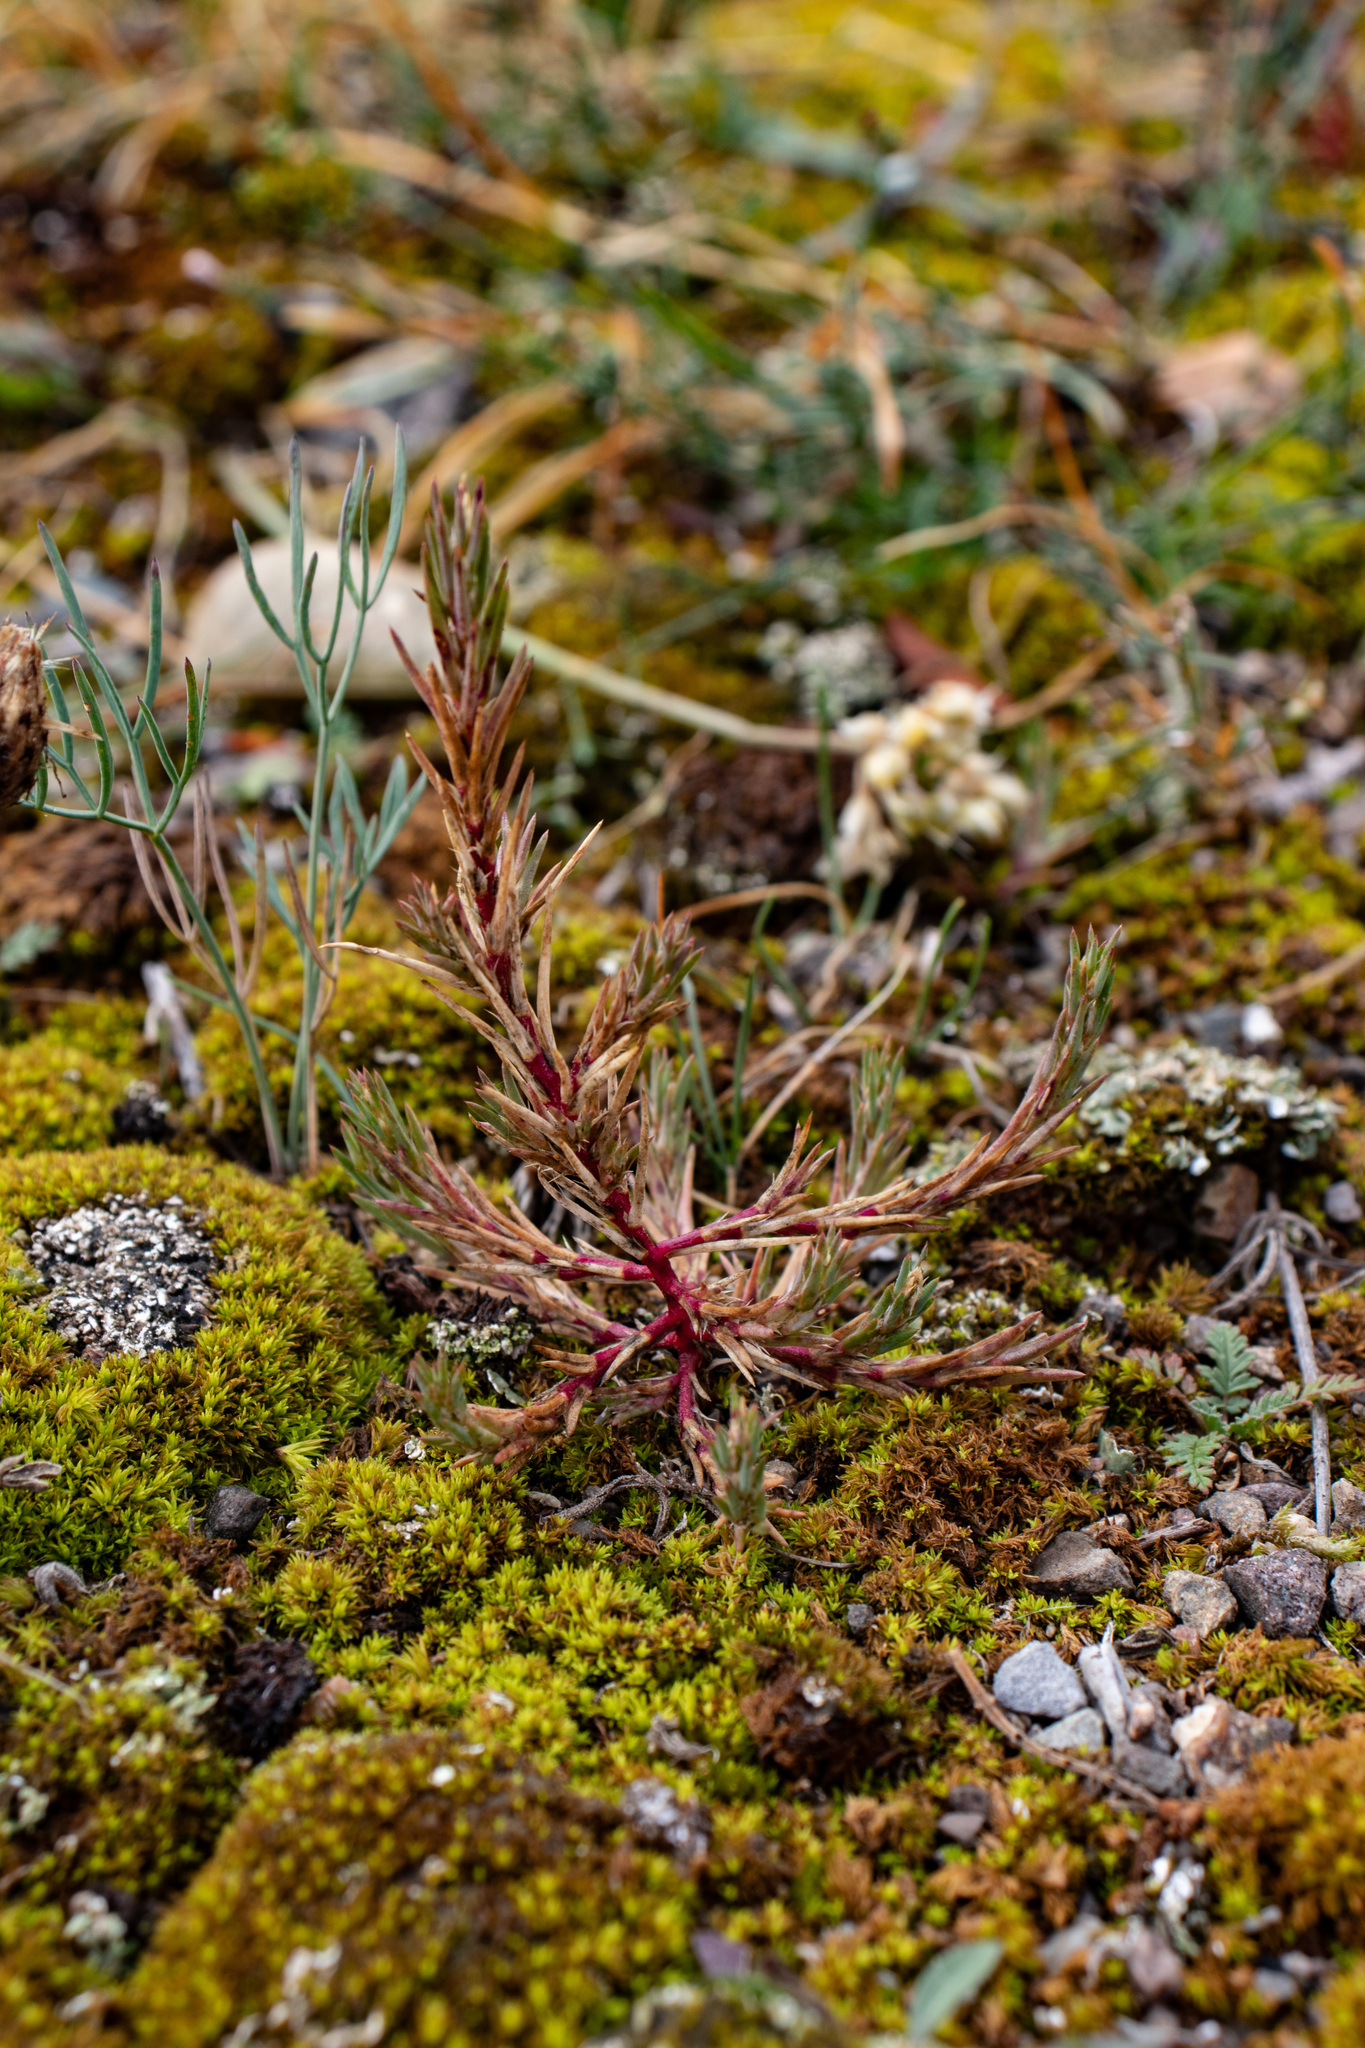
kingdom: Plantae
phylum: Tracheophyta
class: Magnoliopsida
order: Caryophyllales
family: Amaranthaceae
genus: Polycnemum
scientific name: Polycnemum majus
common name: Giant needleleaf
